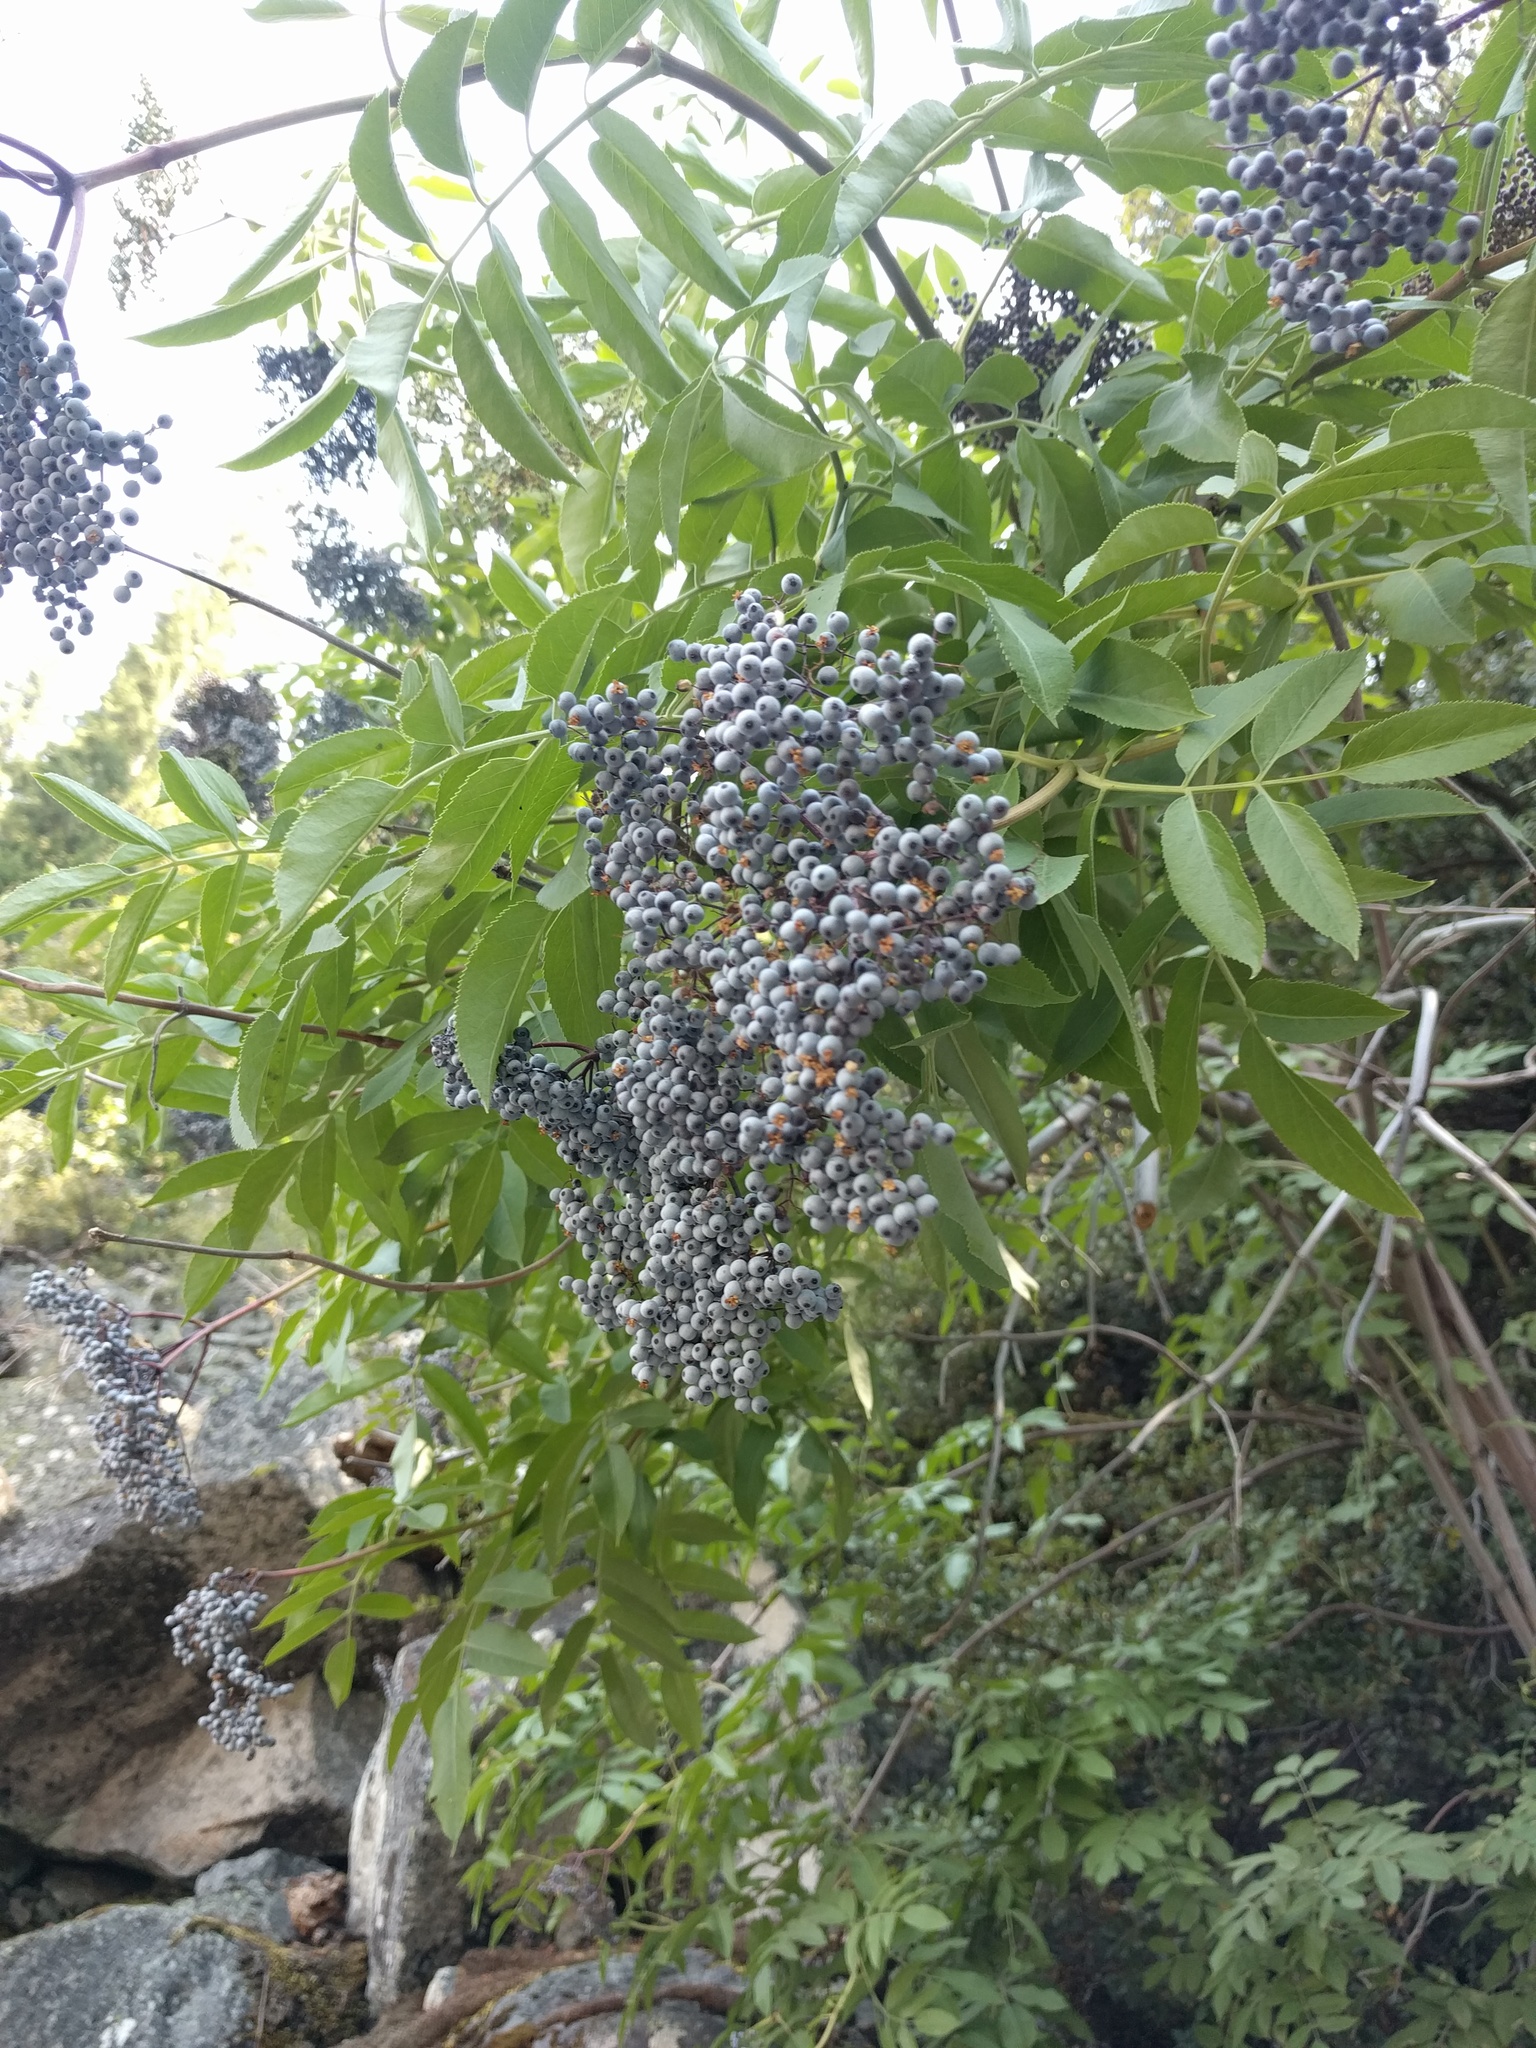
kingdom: Plantae
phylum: Tracheophyta
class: Magnoliopsida
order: Dipsacales
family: Viburnaceae
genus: Sambucus
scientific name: Sambucus cerulea
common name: Blue elder
